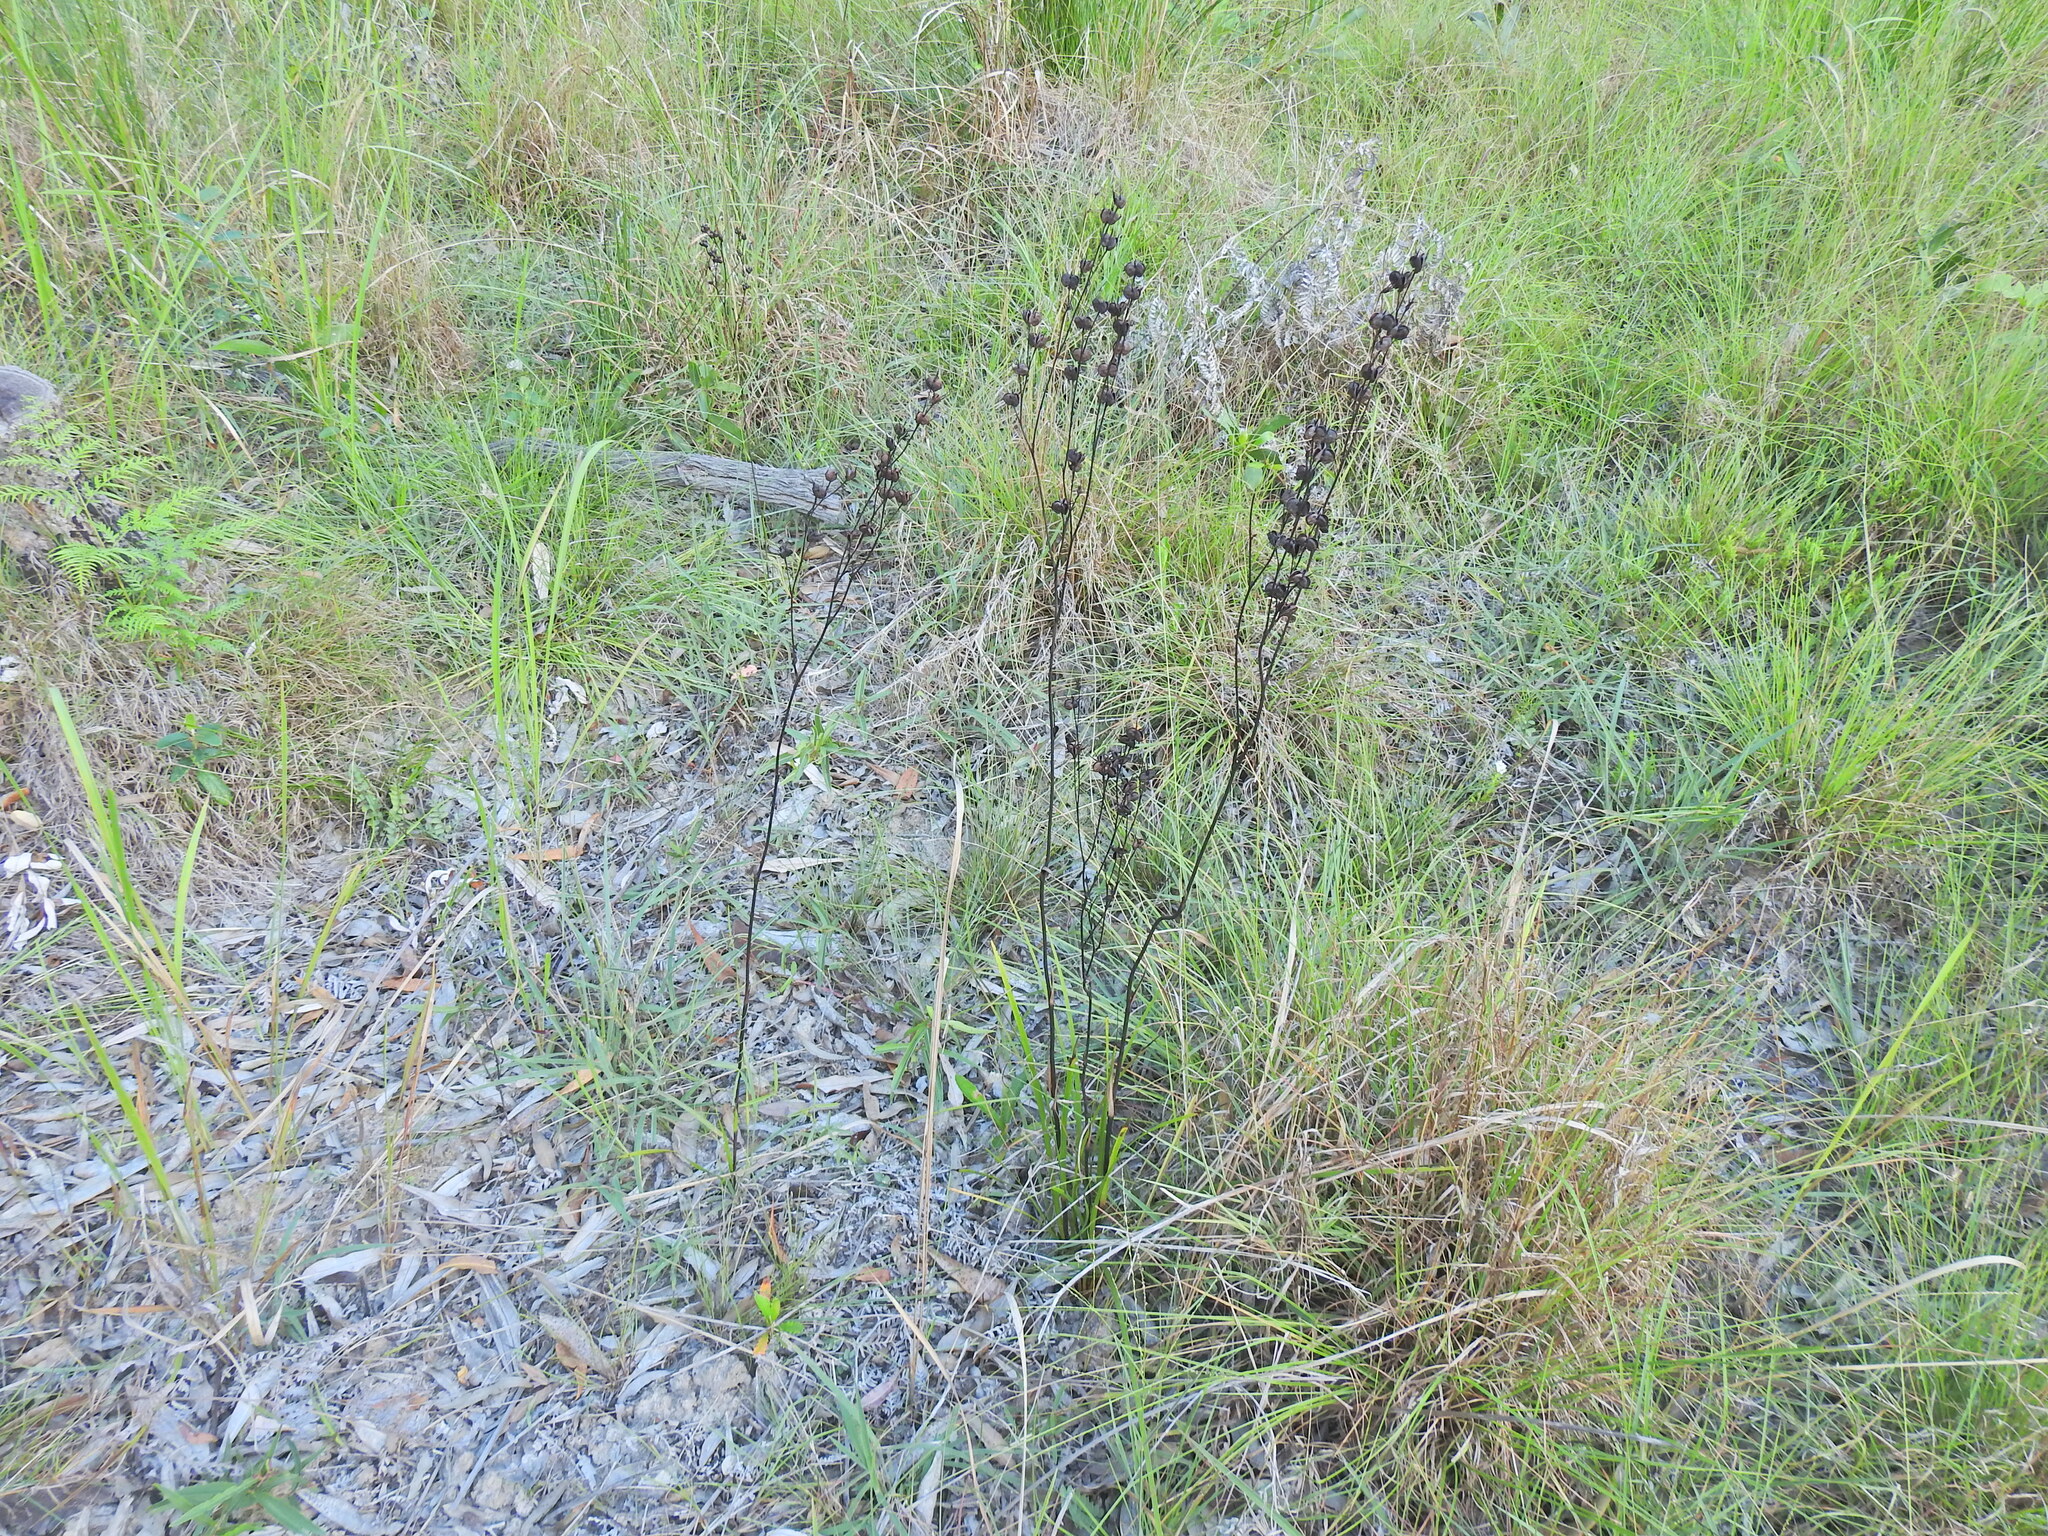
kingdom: Plantae
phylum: Tracheophyta
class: Liliopsida
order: Commelinales
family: Haemodoraceae
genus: Haemodorum
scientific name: Haemodorum austroqueenslandicum
